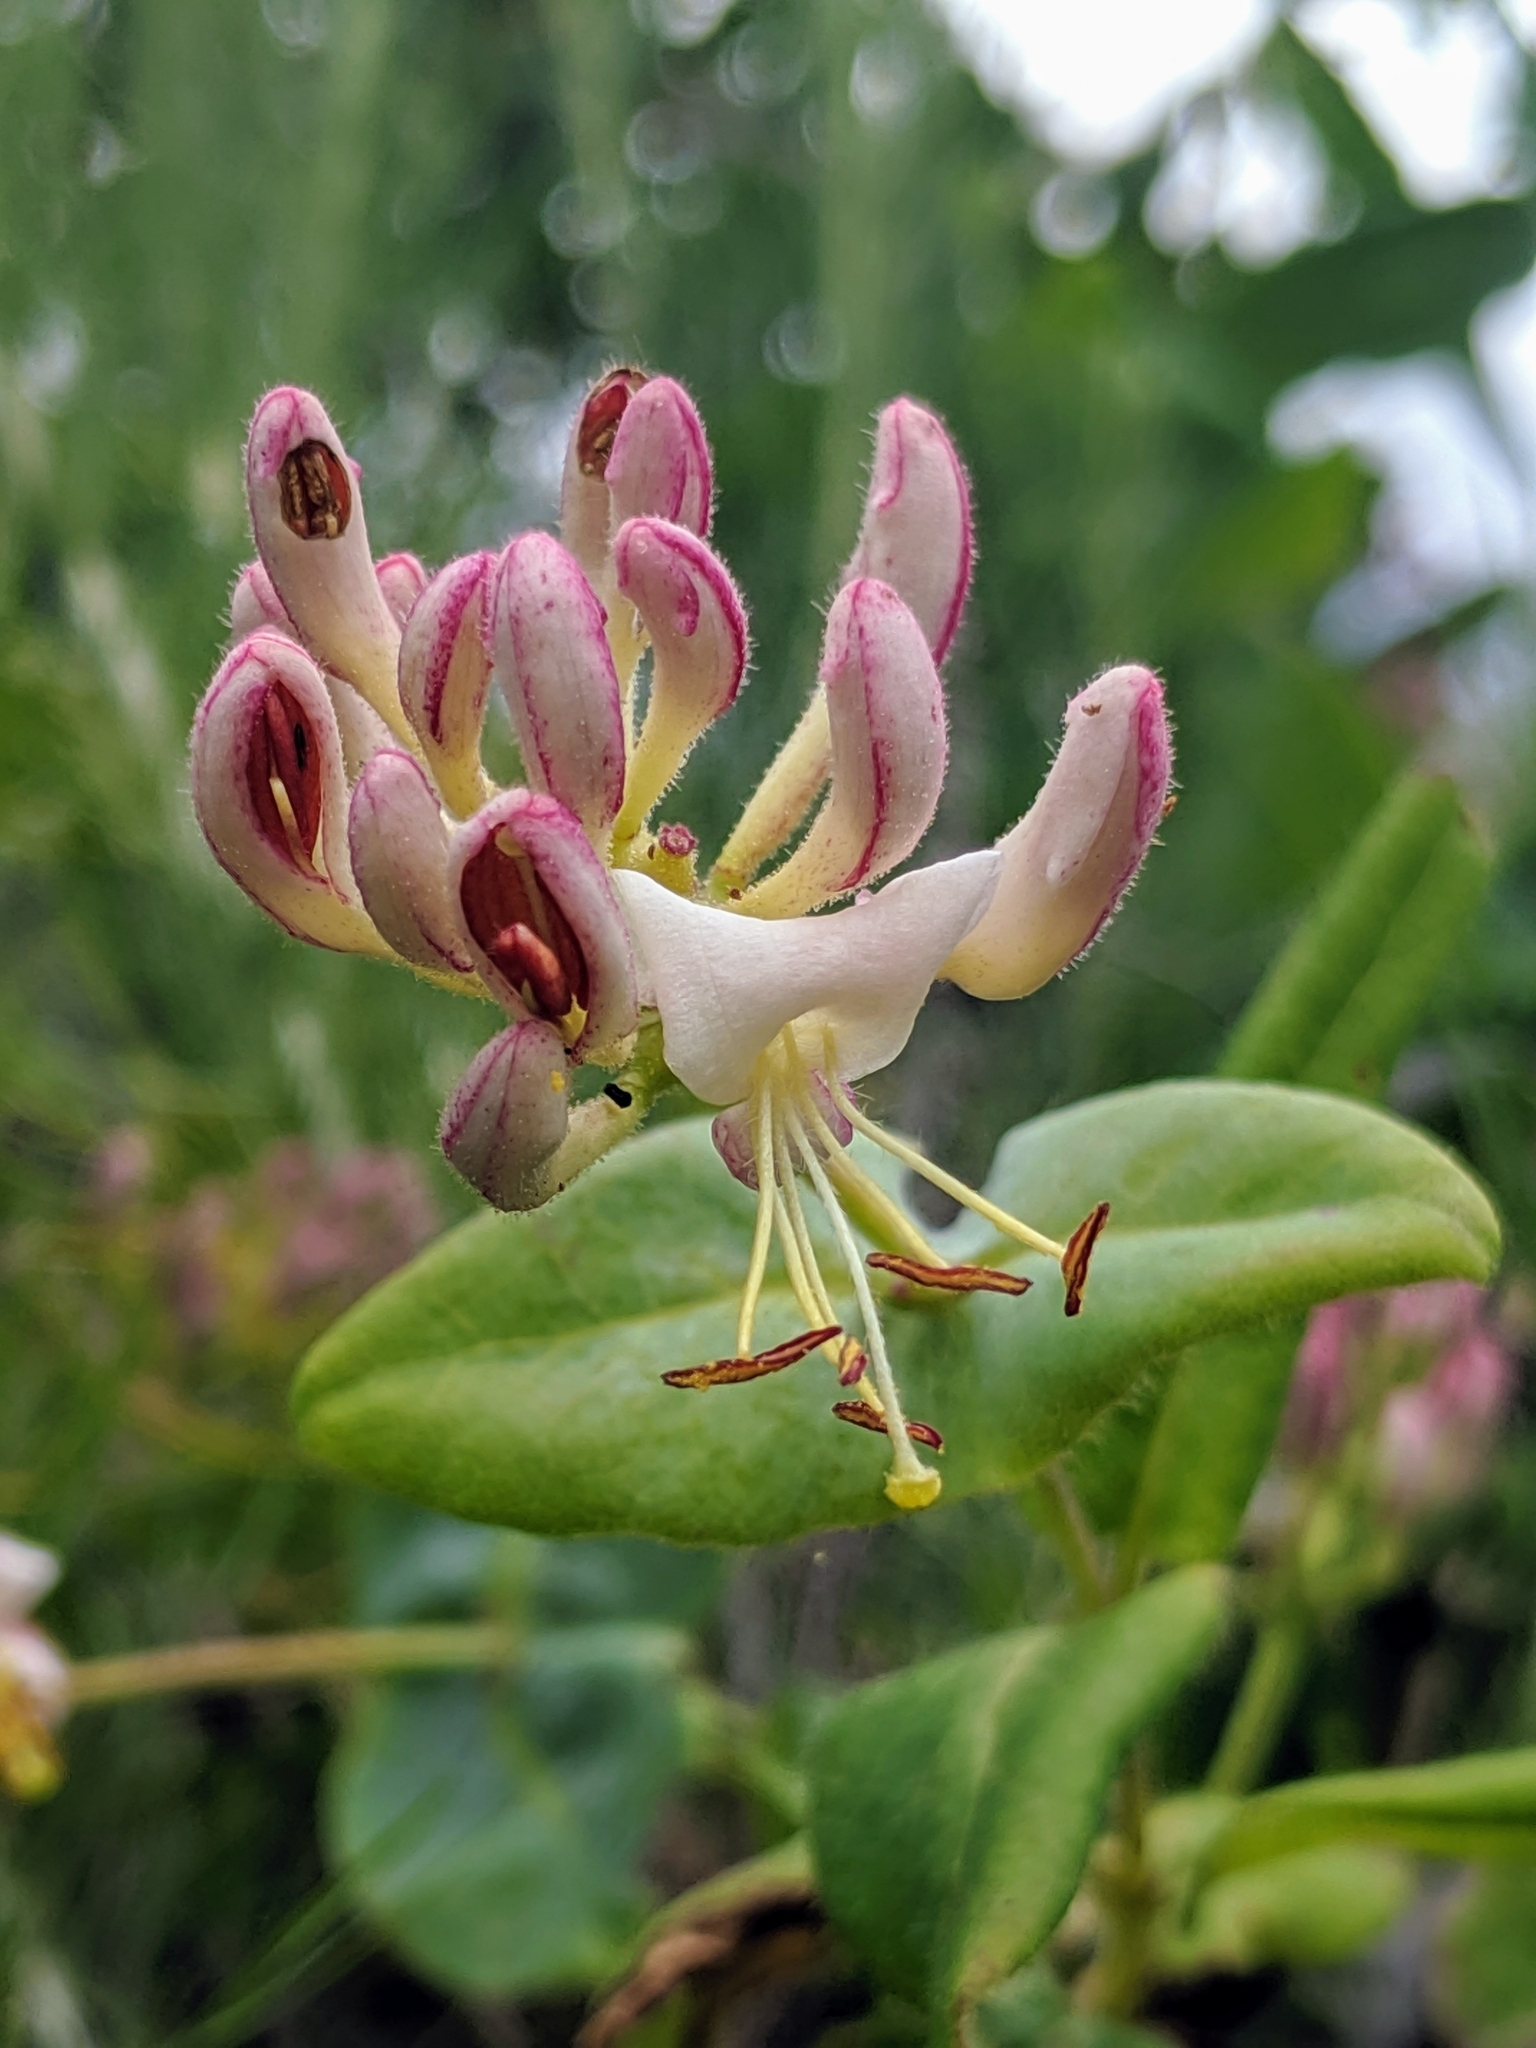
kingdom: Plantae
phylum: Tracheophyta
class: Magnoliopsida
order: Dipsacales
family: Caprifoliaceae
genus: Lonicera
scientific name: Lonicera hispidula
